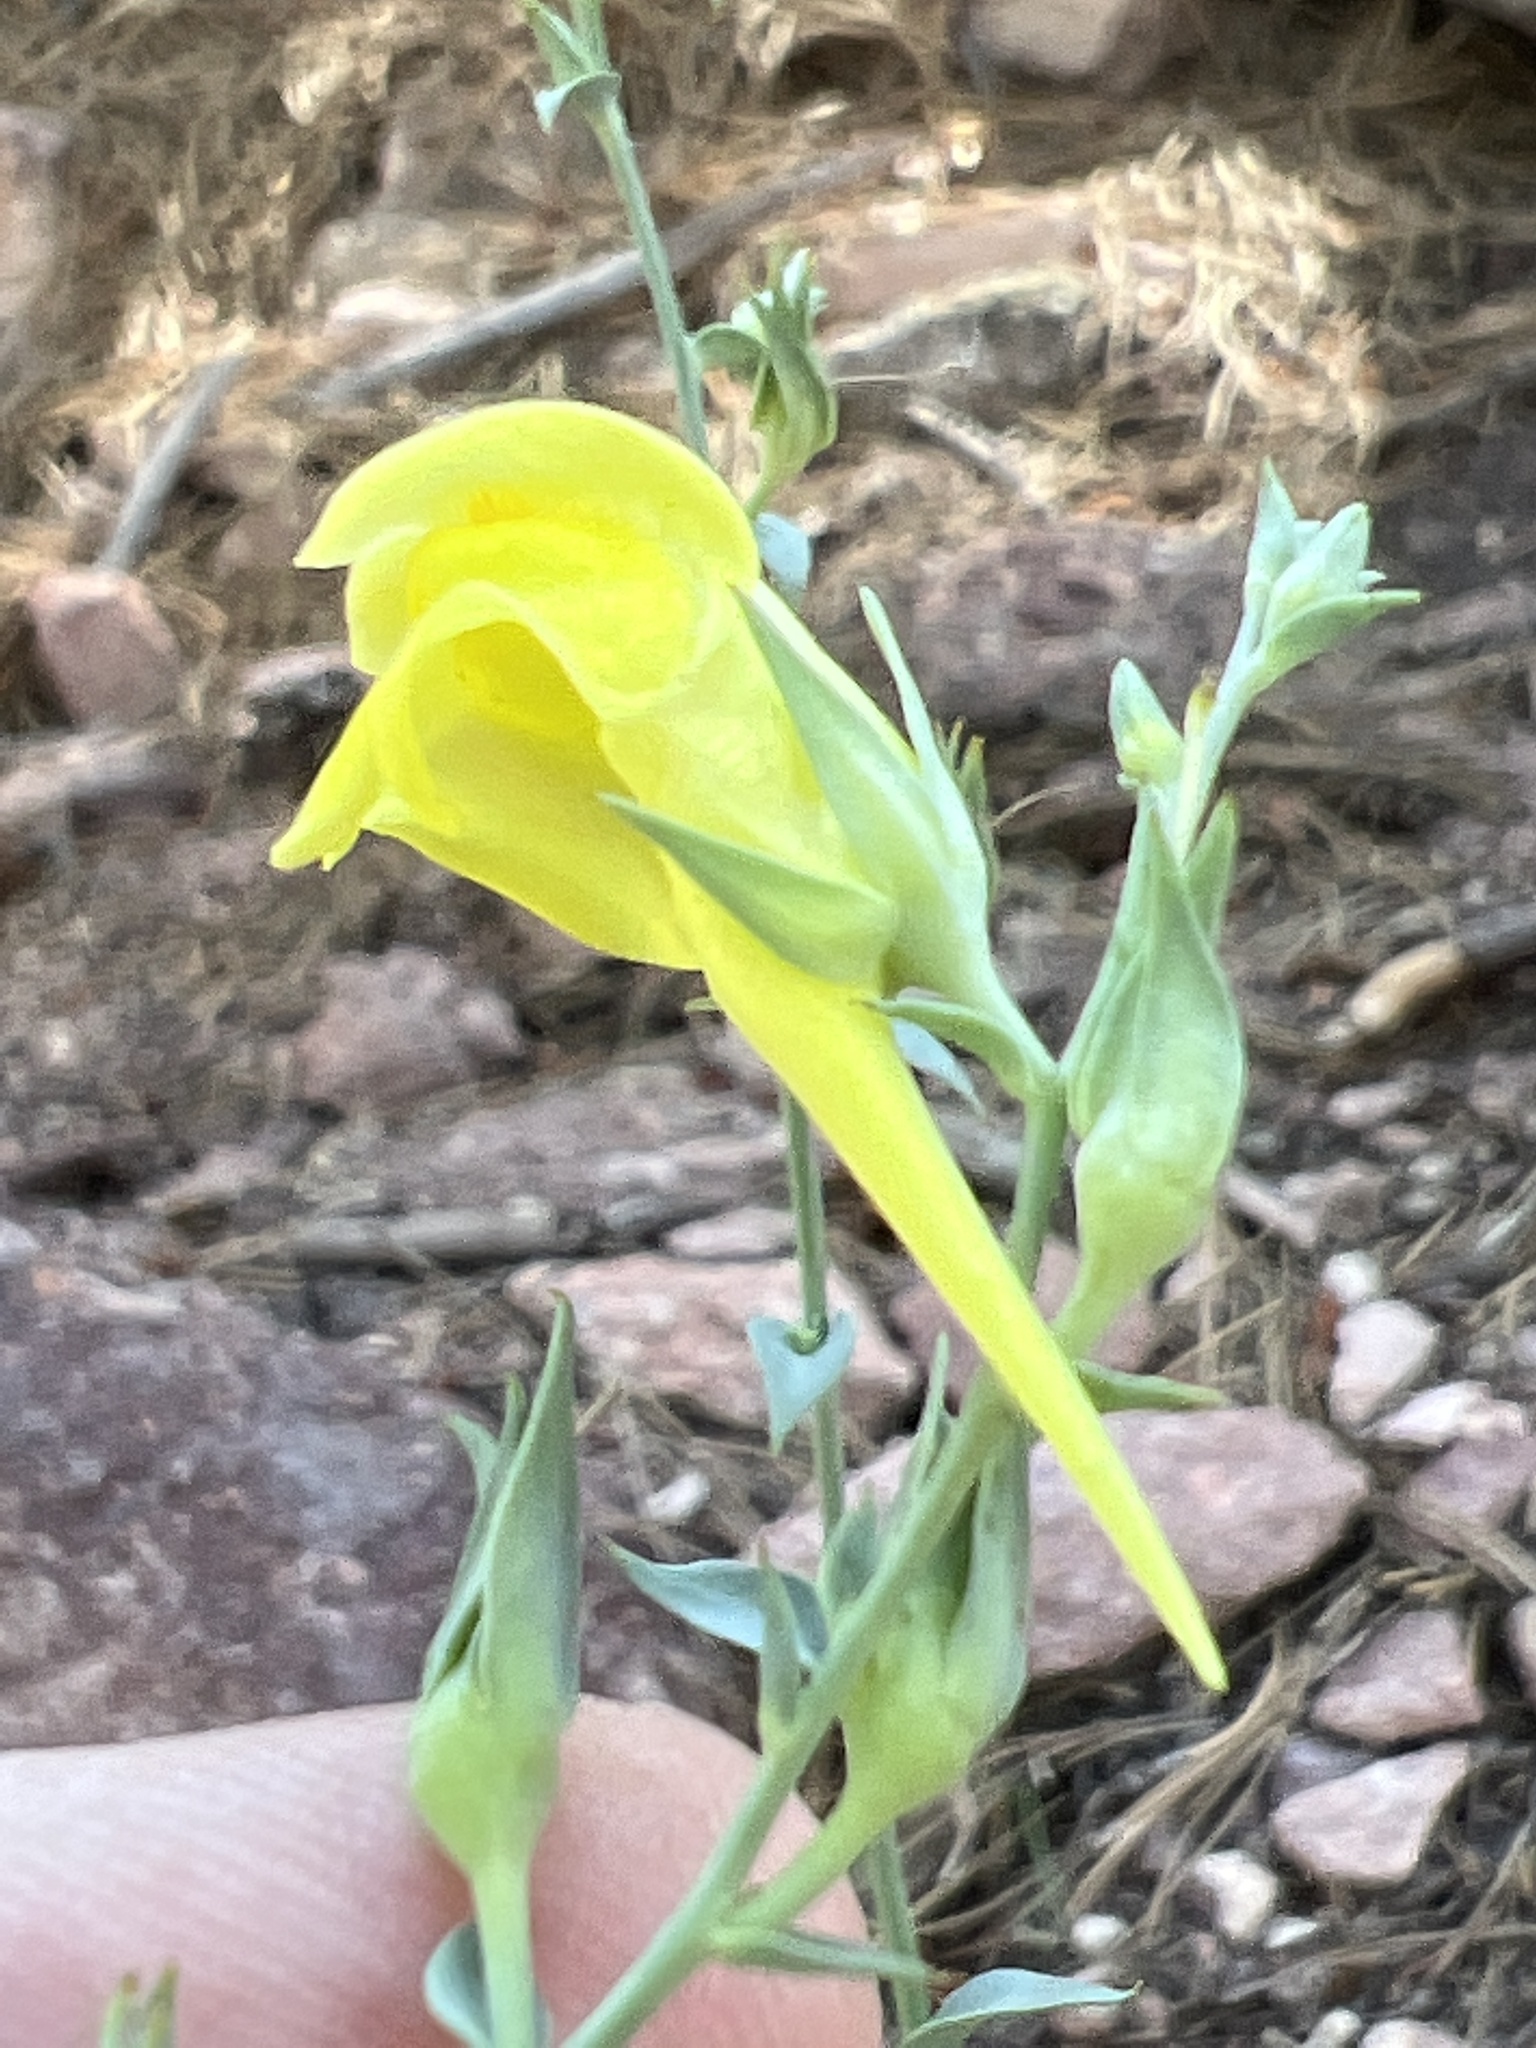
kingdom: Plantae
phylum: Tracheophyta
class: Magnoliopsida
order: Lamiales
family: Plantaginaceae
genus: Linaria
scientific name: Linaria dalmatica
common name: Dalmatian toadflax
